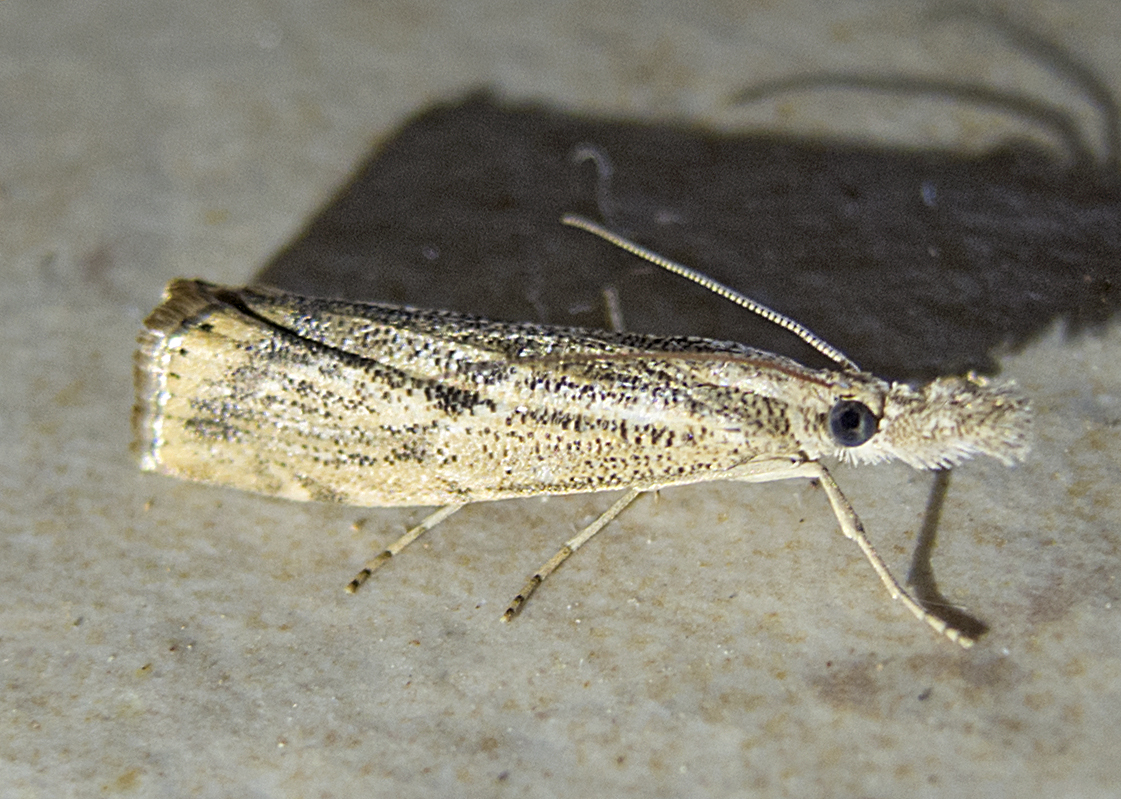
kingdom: Animalia
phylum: Arthropoda
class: Insecta
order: Lepidoptera
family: Crambidae
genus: Agriphila
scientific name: Agriphila tolli
